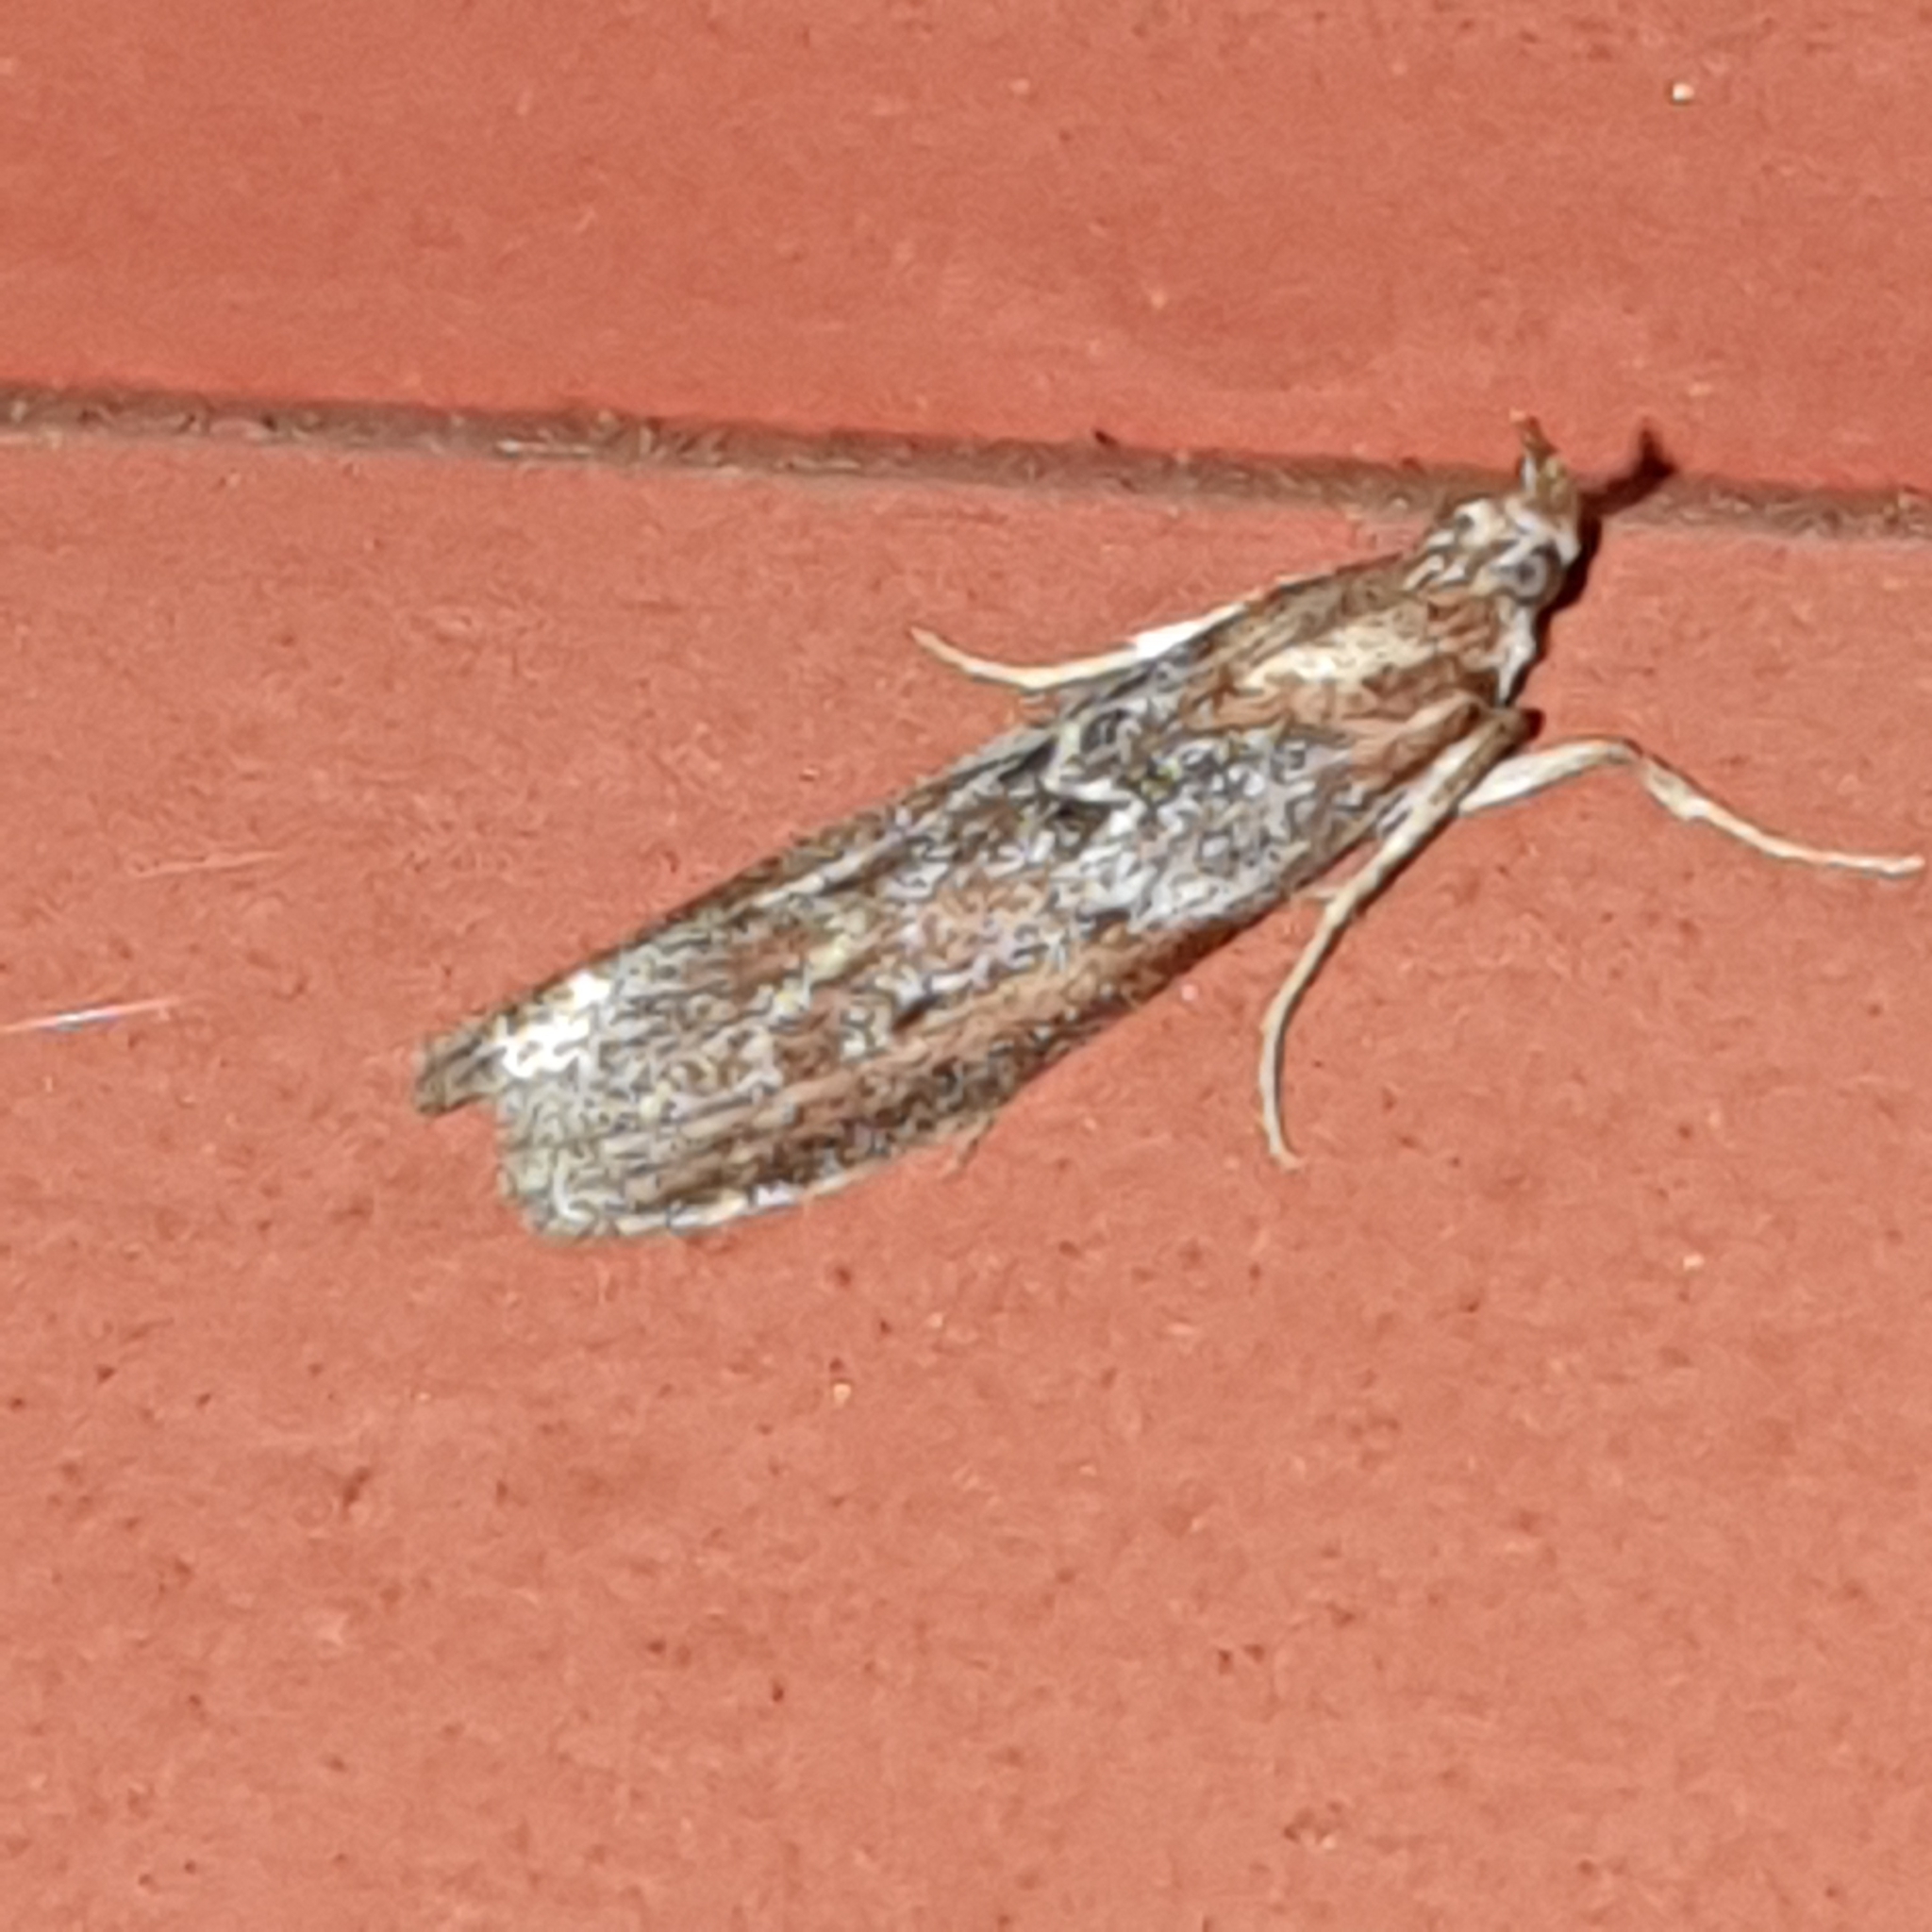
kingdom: Animalia
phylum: Arthropoda
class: Insecta
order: Lepidoptera
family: Pyralidae
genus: Selagia
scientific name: Selagia spadicella
